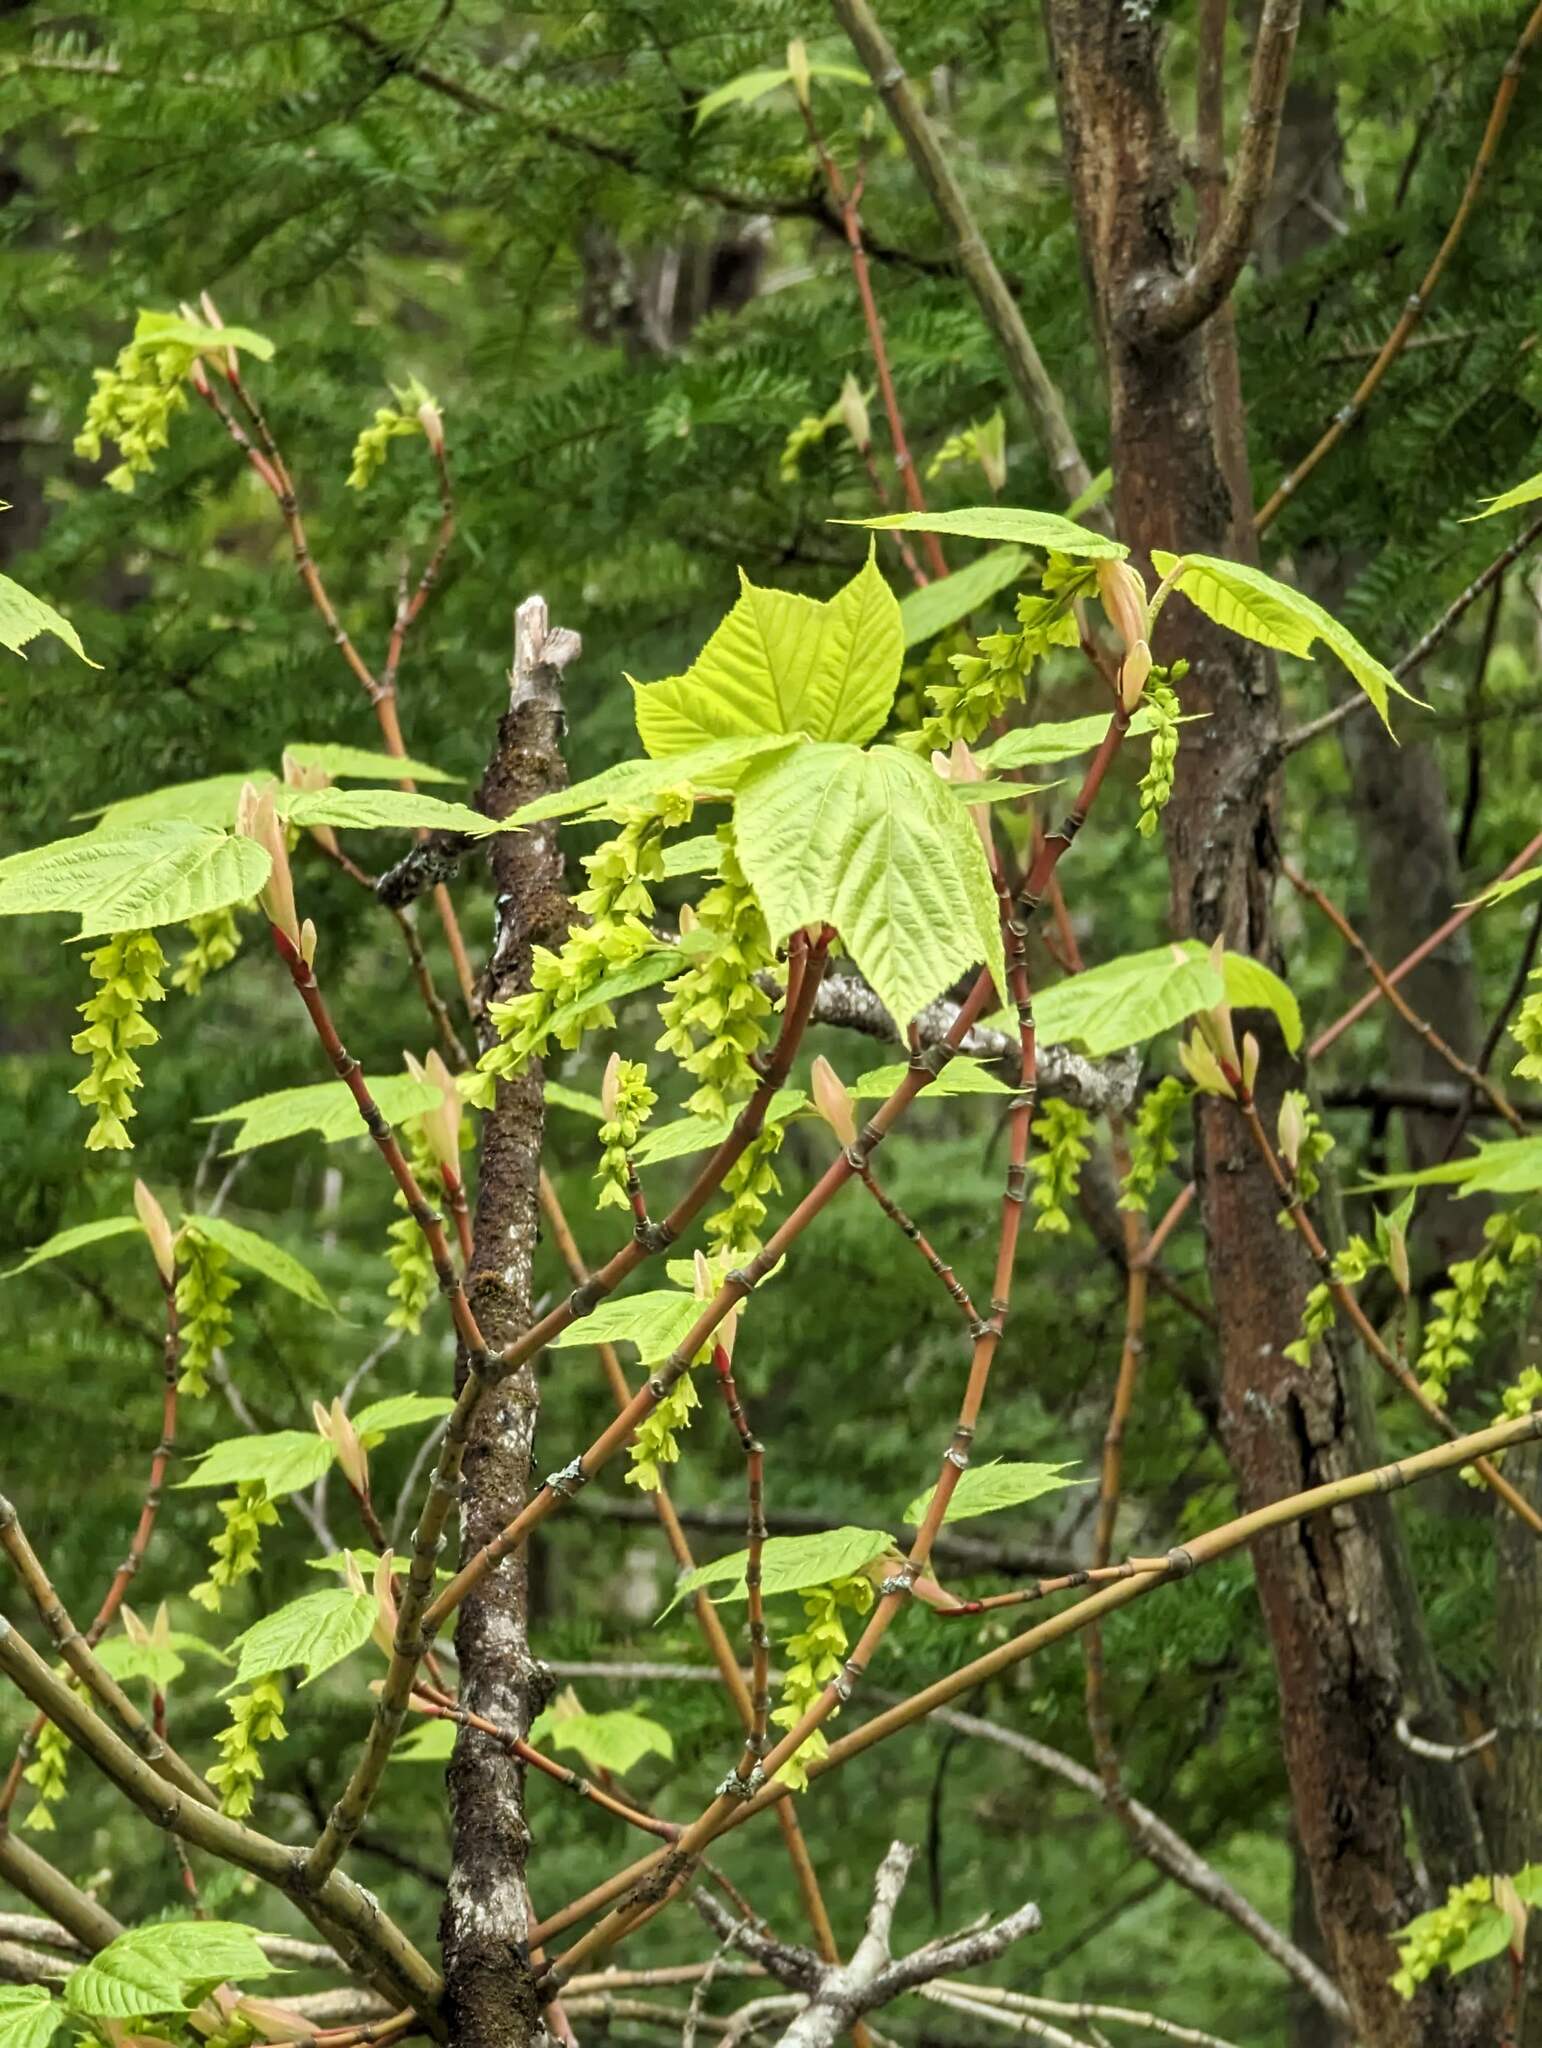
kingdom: Plantae
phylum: Tracheophyta
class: Magnoliopsida
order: Sapindales
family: Sapindaceae
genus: Acer
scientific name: Acer pensylvanicum
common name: Moosewood
